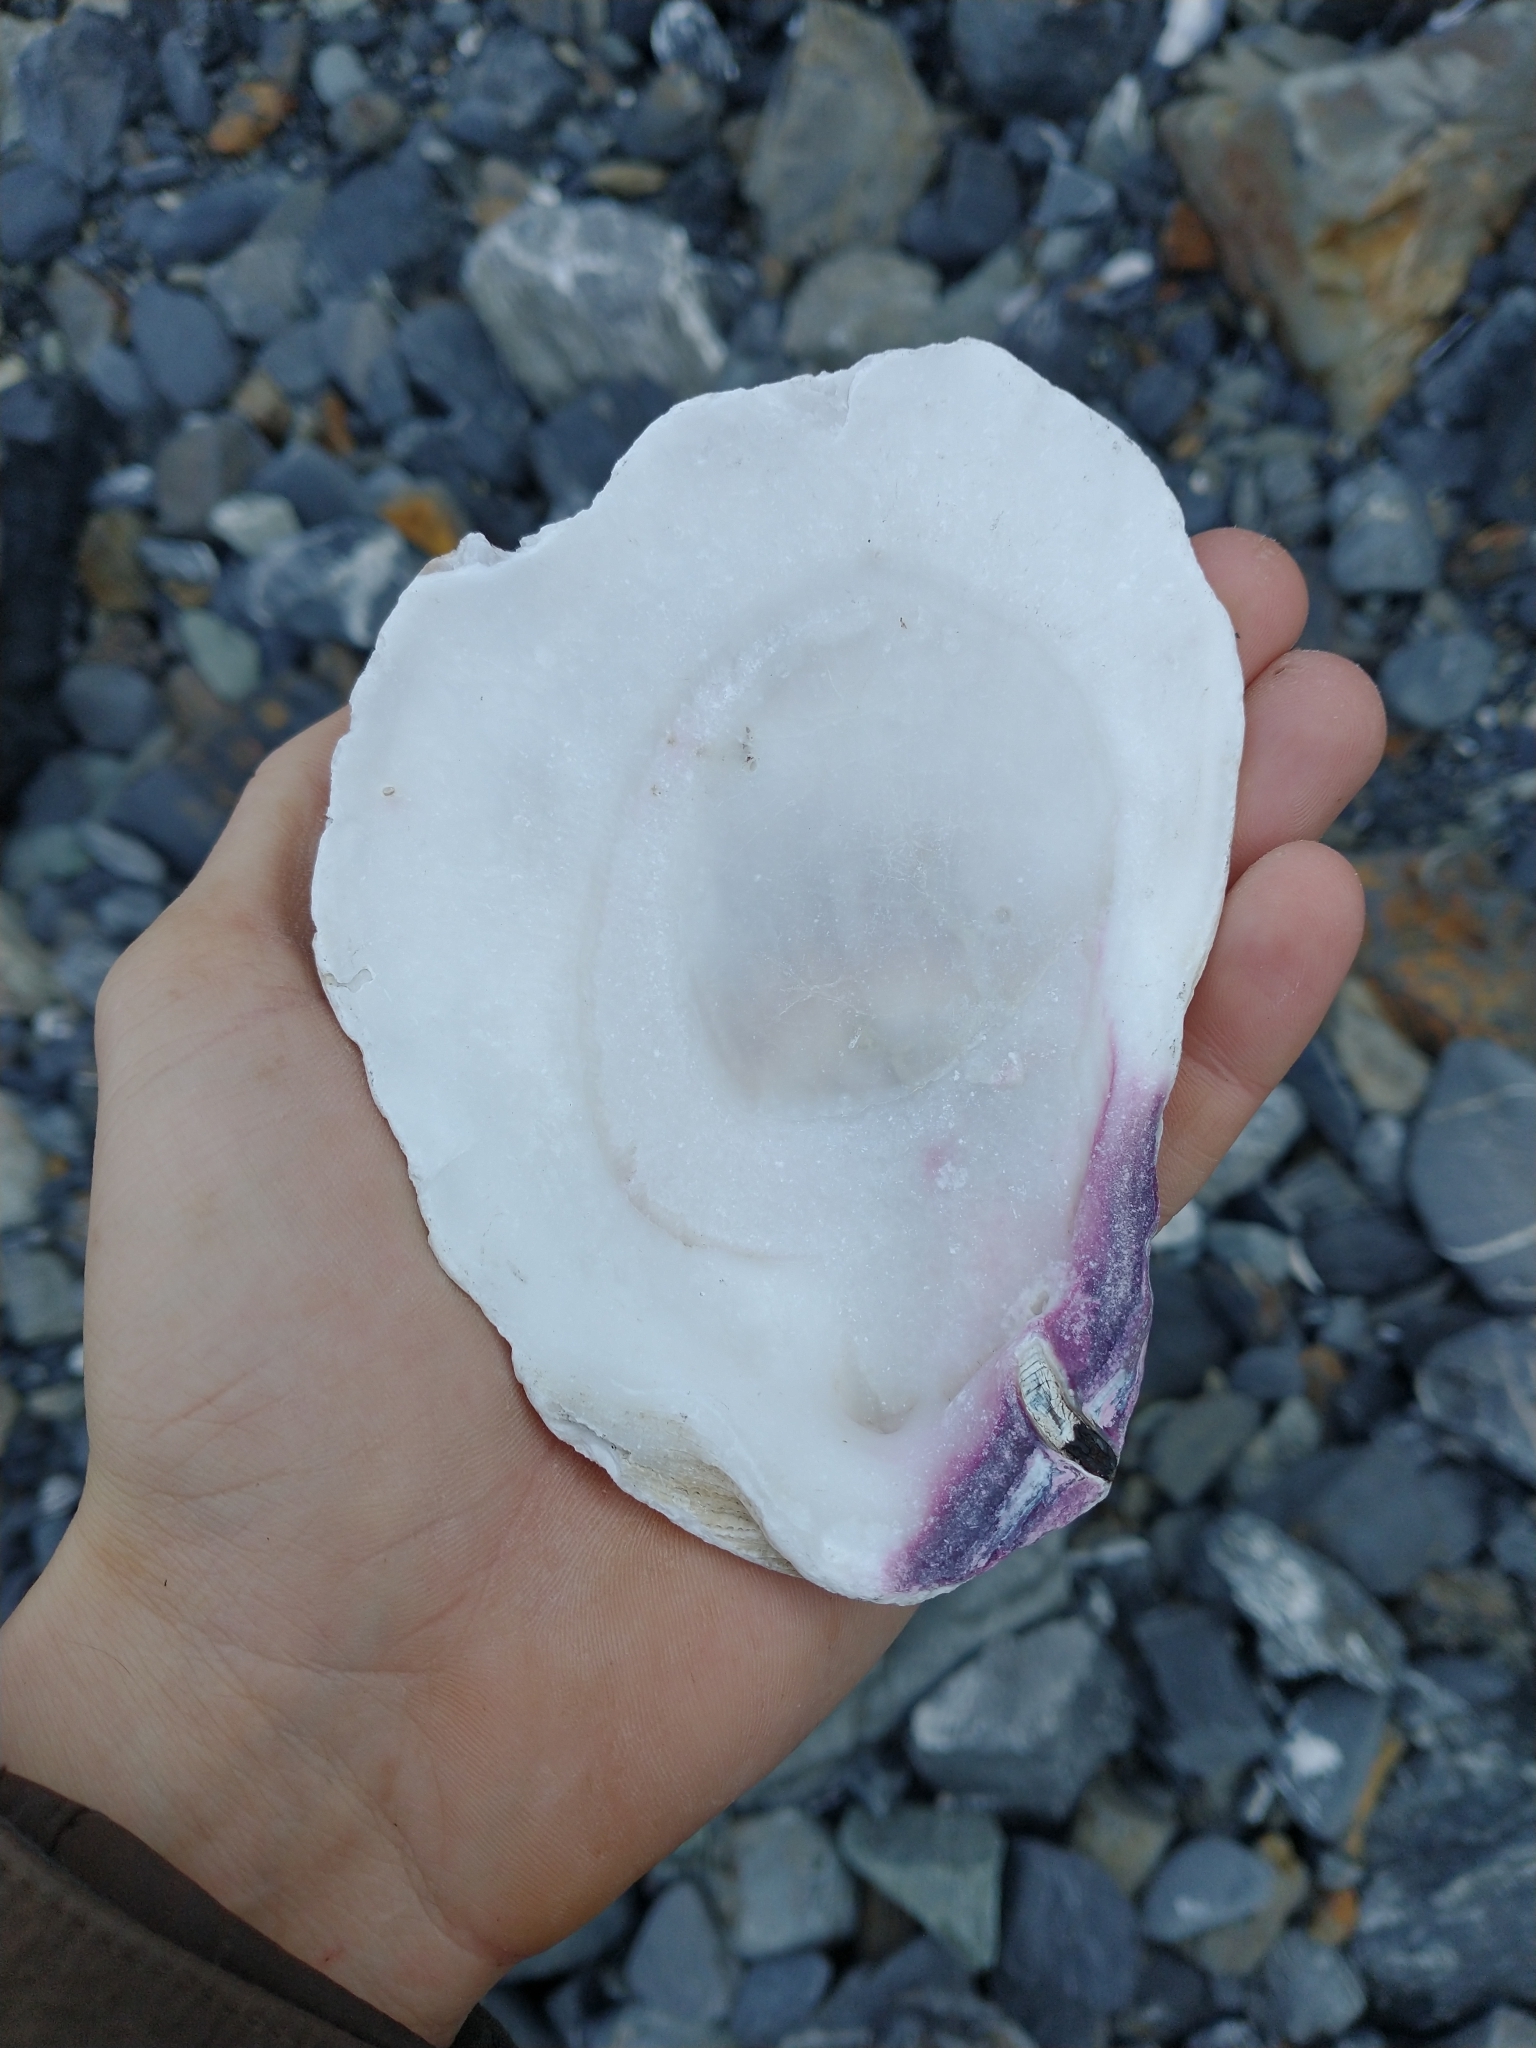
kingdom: Animalia
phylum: Mollusca
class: Bivalvia
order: Pectinida
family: Pectinidae
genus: Crassadoma
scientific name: Crassadoma gigantea
